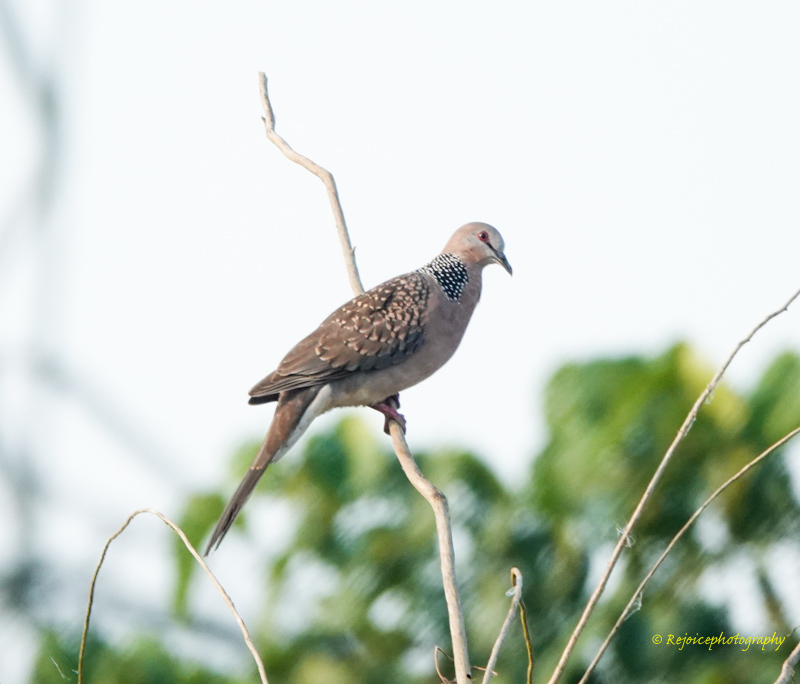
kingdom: Animalia
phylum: Chordata
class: Aves
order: Columbiformes
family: Columbidae
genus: Spilopelia
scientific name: Spilopelia chinensis
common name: Spotted dove
